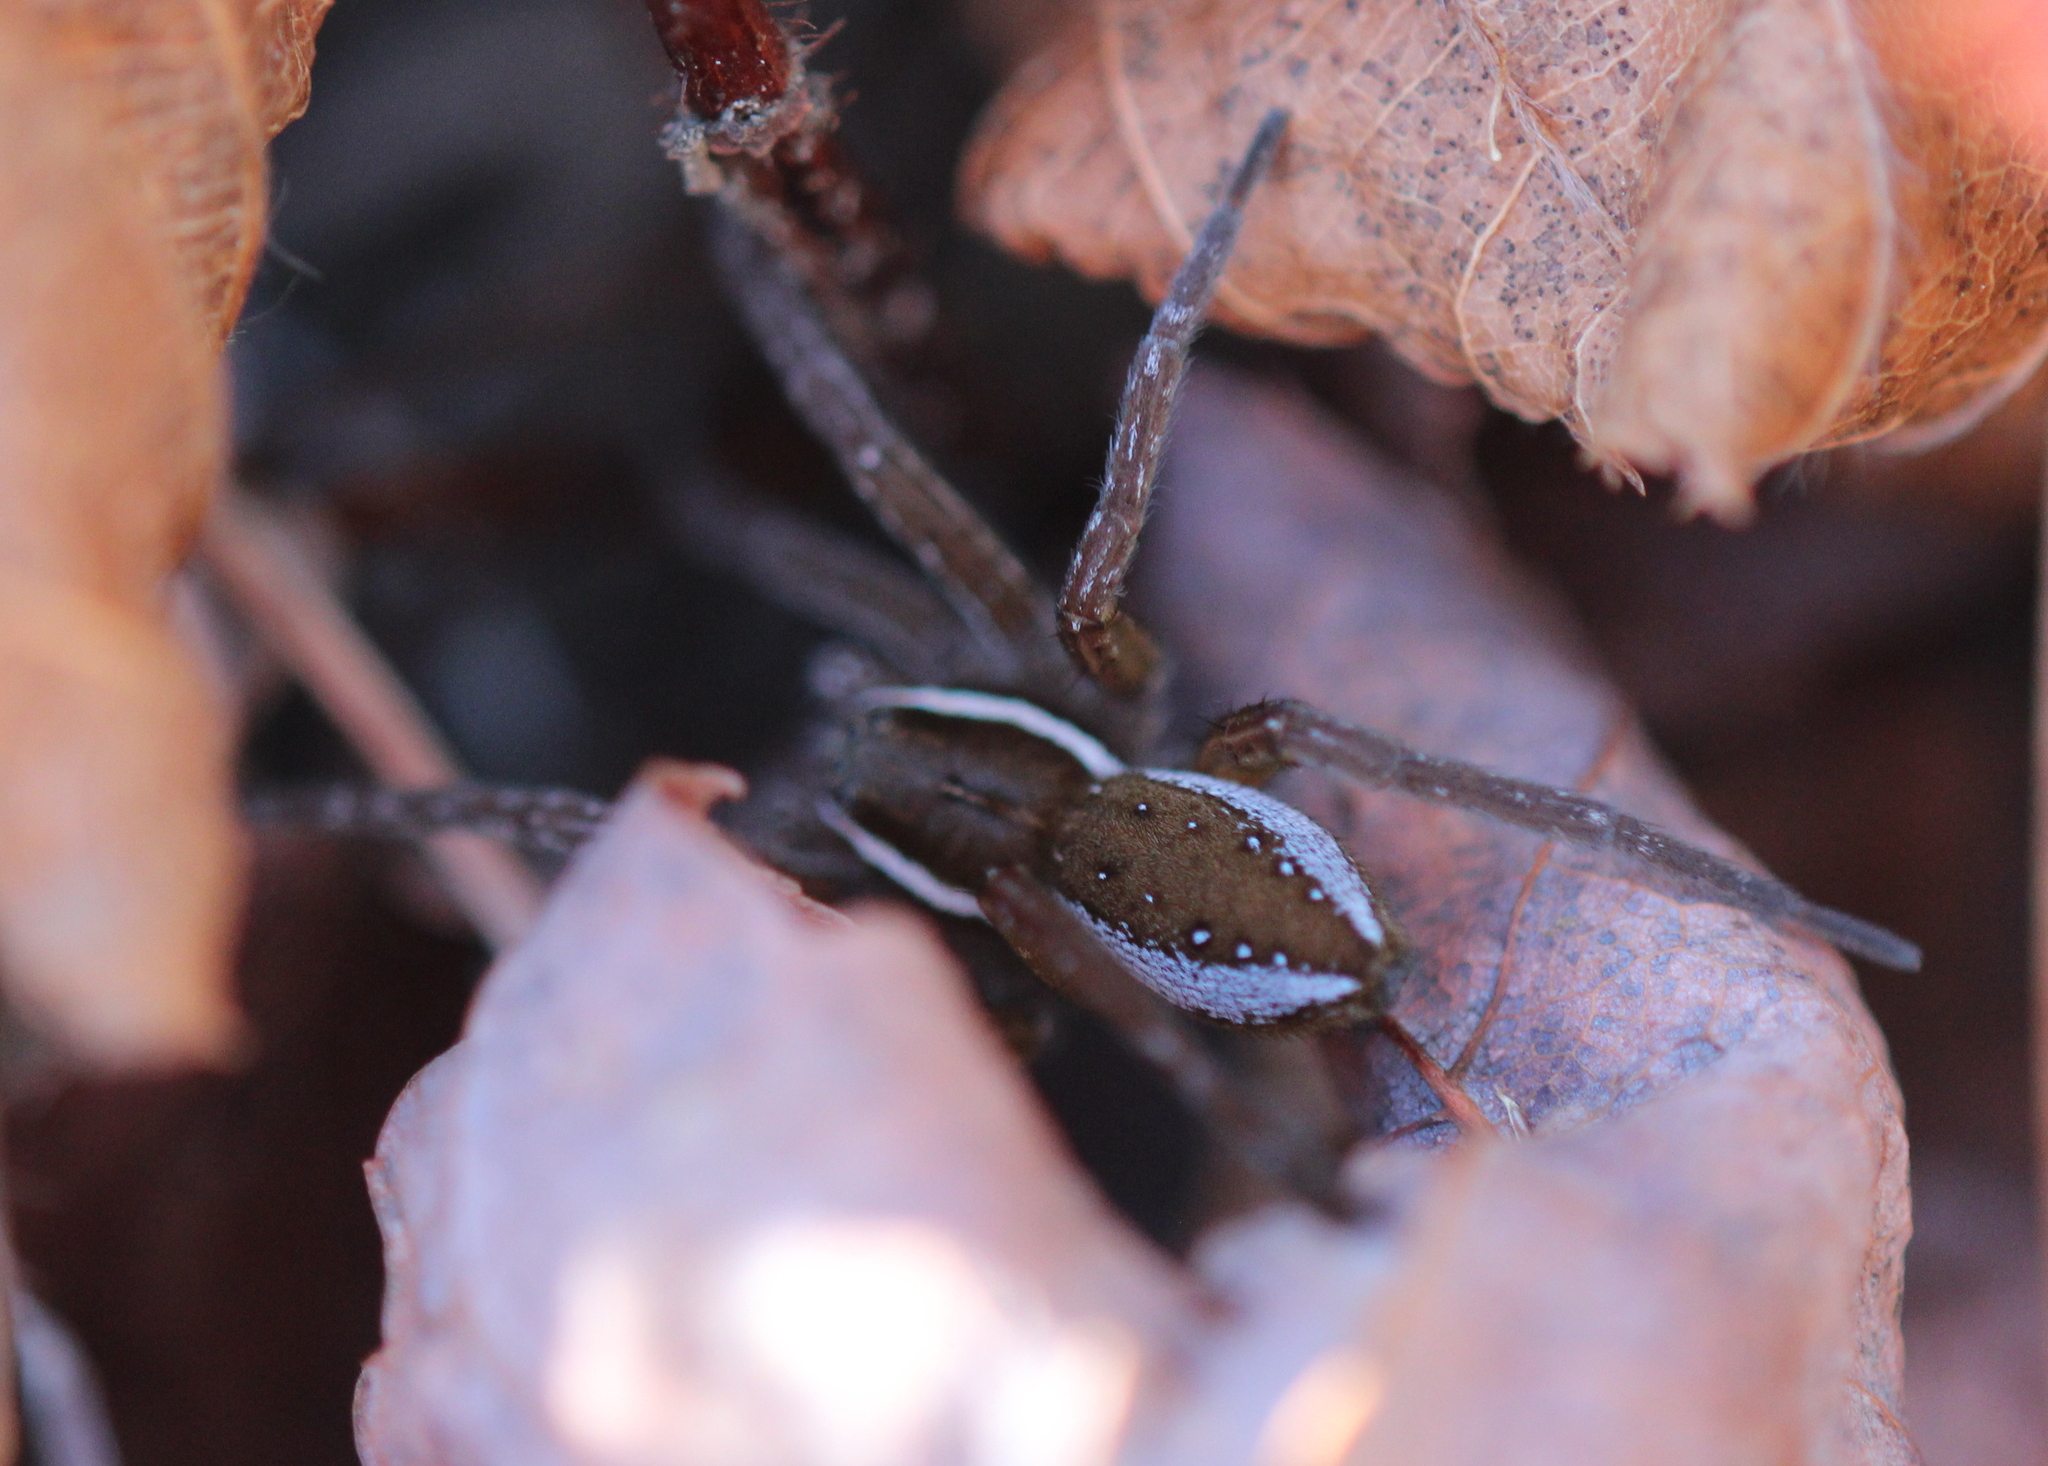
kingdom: Animalia
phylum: Arthropoda
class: Arachnida
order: Araneae
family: Pisauridae
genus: Dolomedes
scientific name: Dolomedes triton
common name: Six-spotted fishing spider
